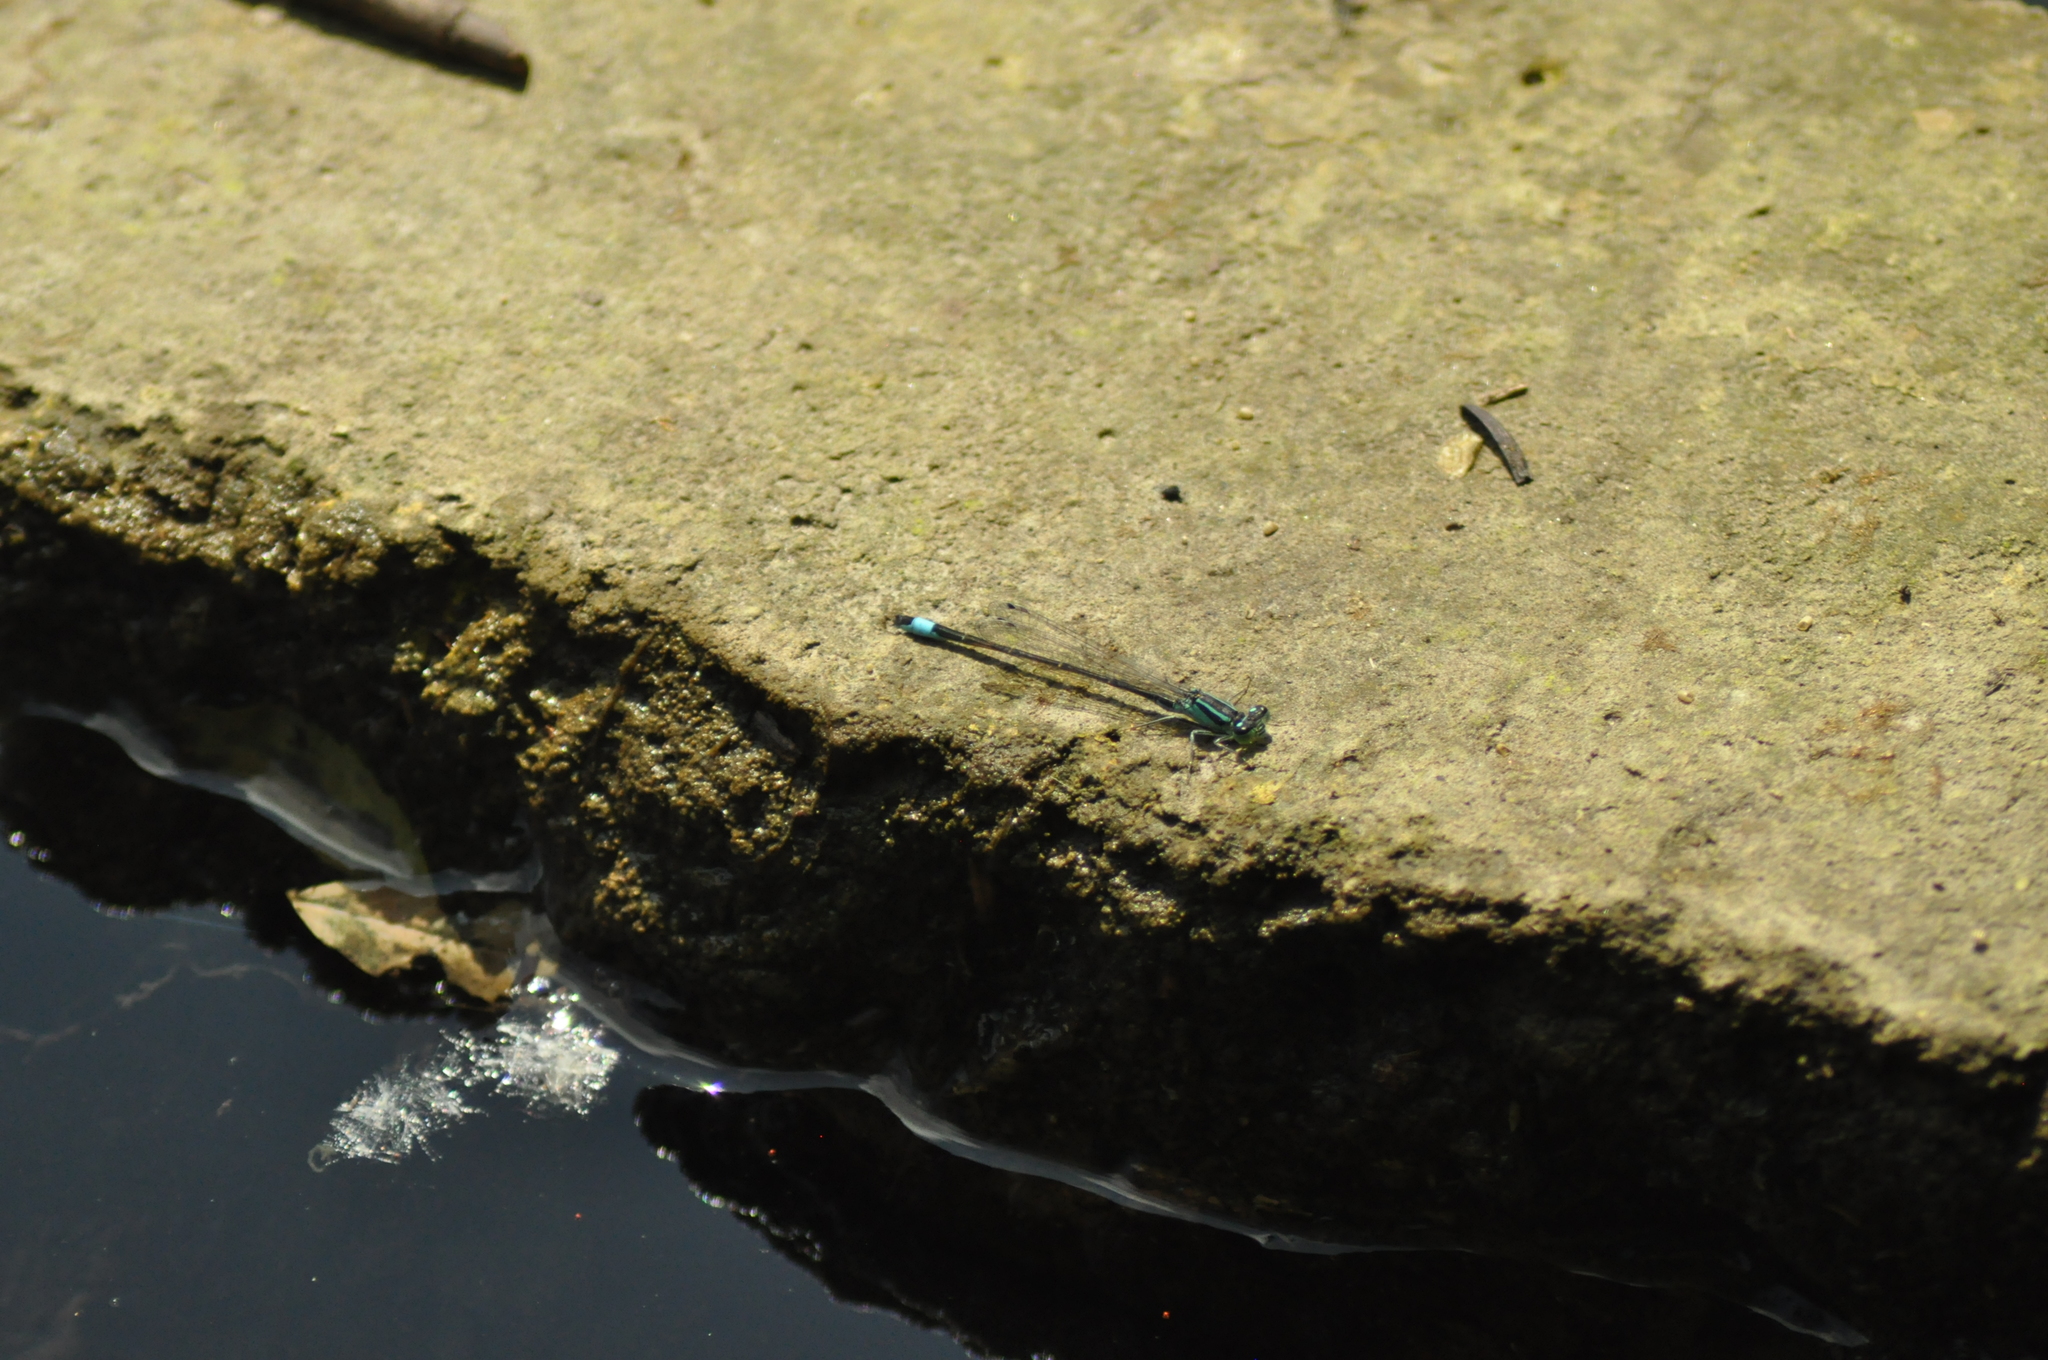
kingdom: Animalia
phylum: Arthropoda
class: Insecta
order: Odonata
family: Coenagrionidae
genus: Ischnura
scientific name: Ischnura elegans
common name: Blue-tailed damselfly
